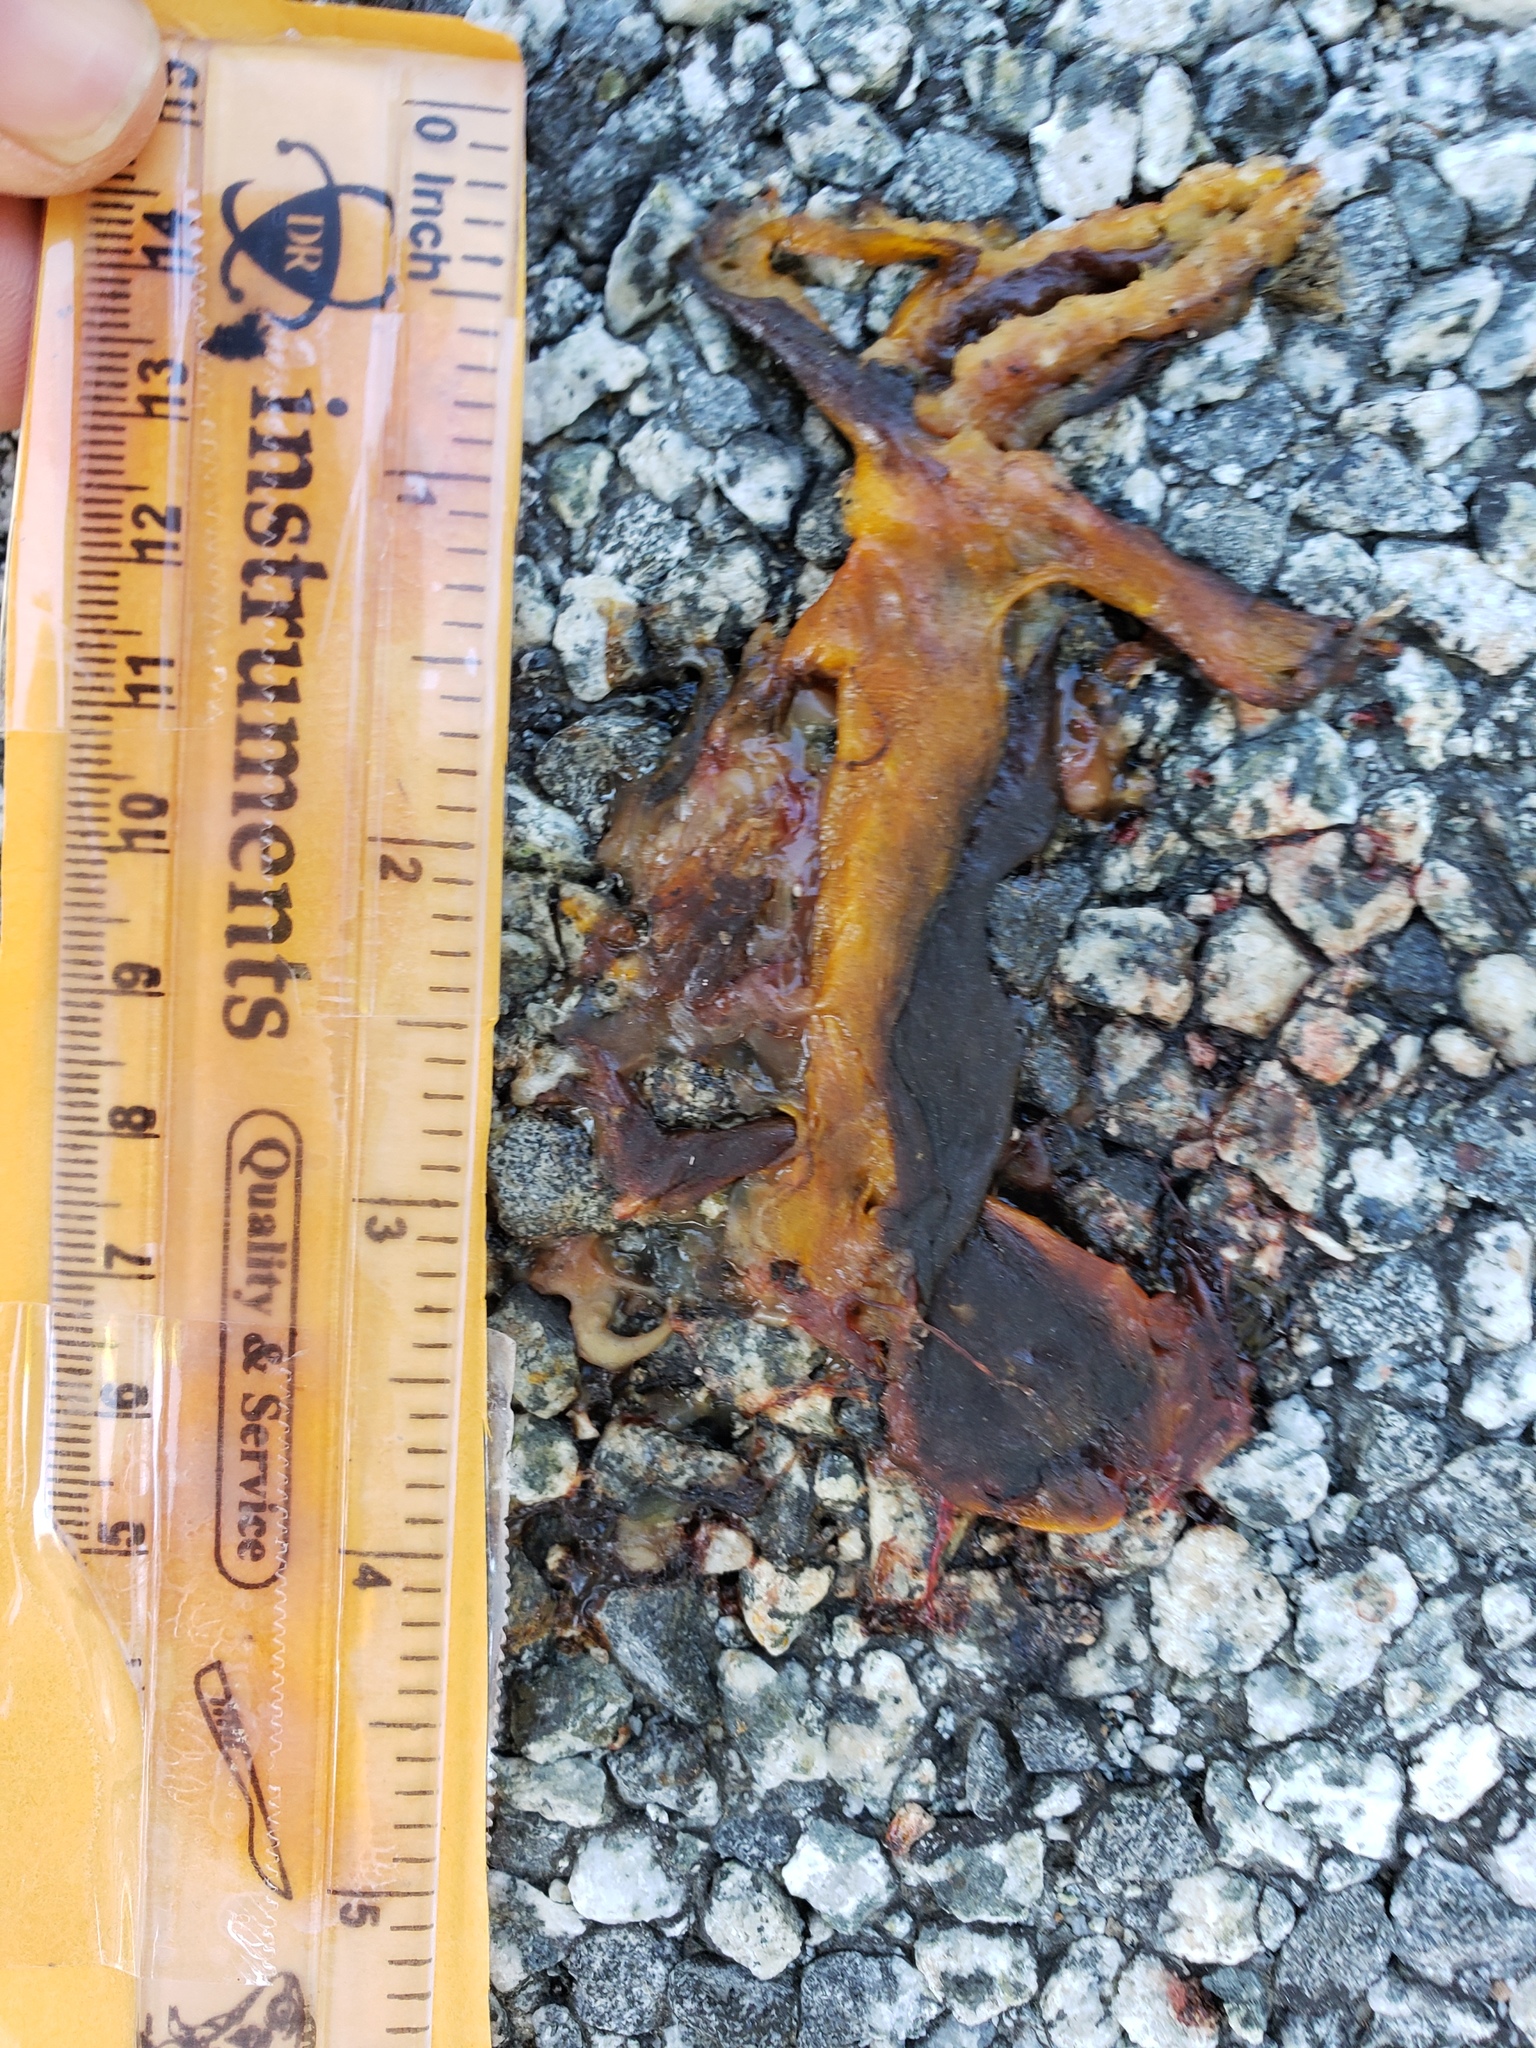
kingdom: Animalia
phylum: Chordata
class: Amphibia
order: Caudata
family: Salamandridae
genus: Taricha
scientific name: Taricha
